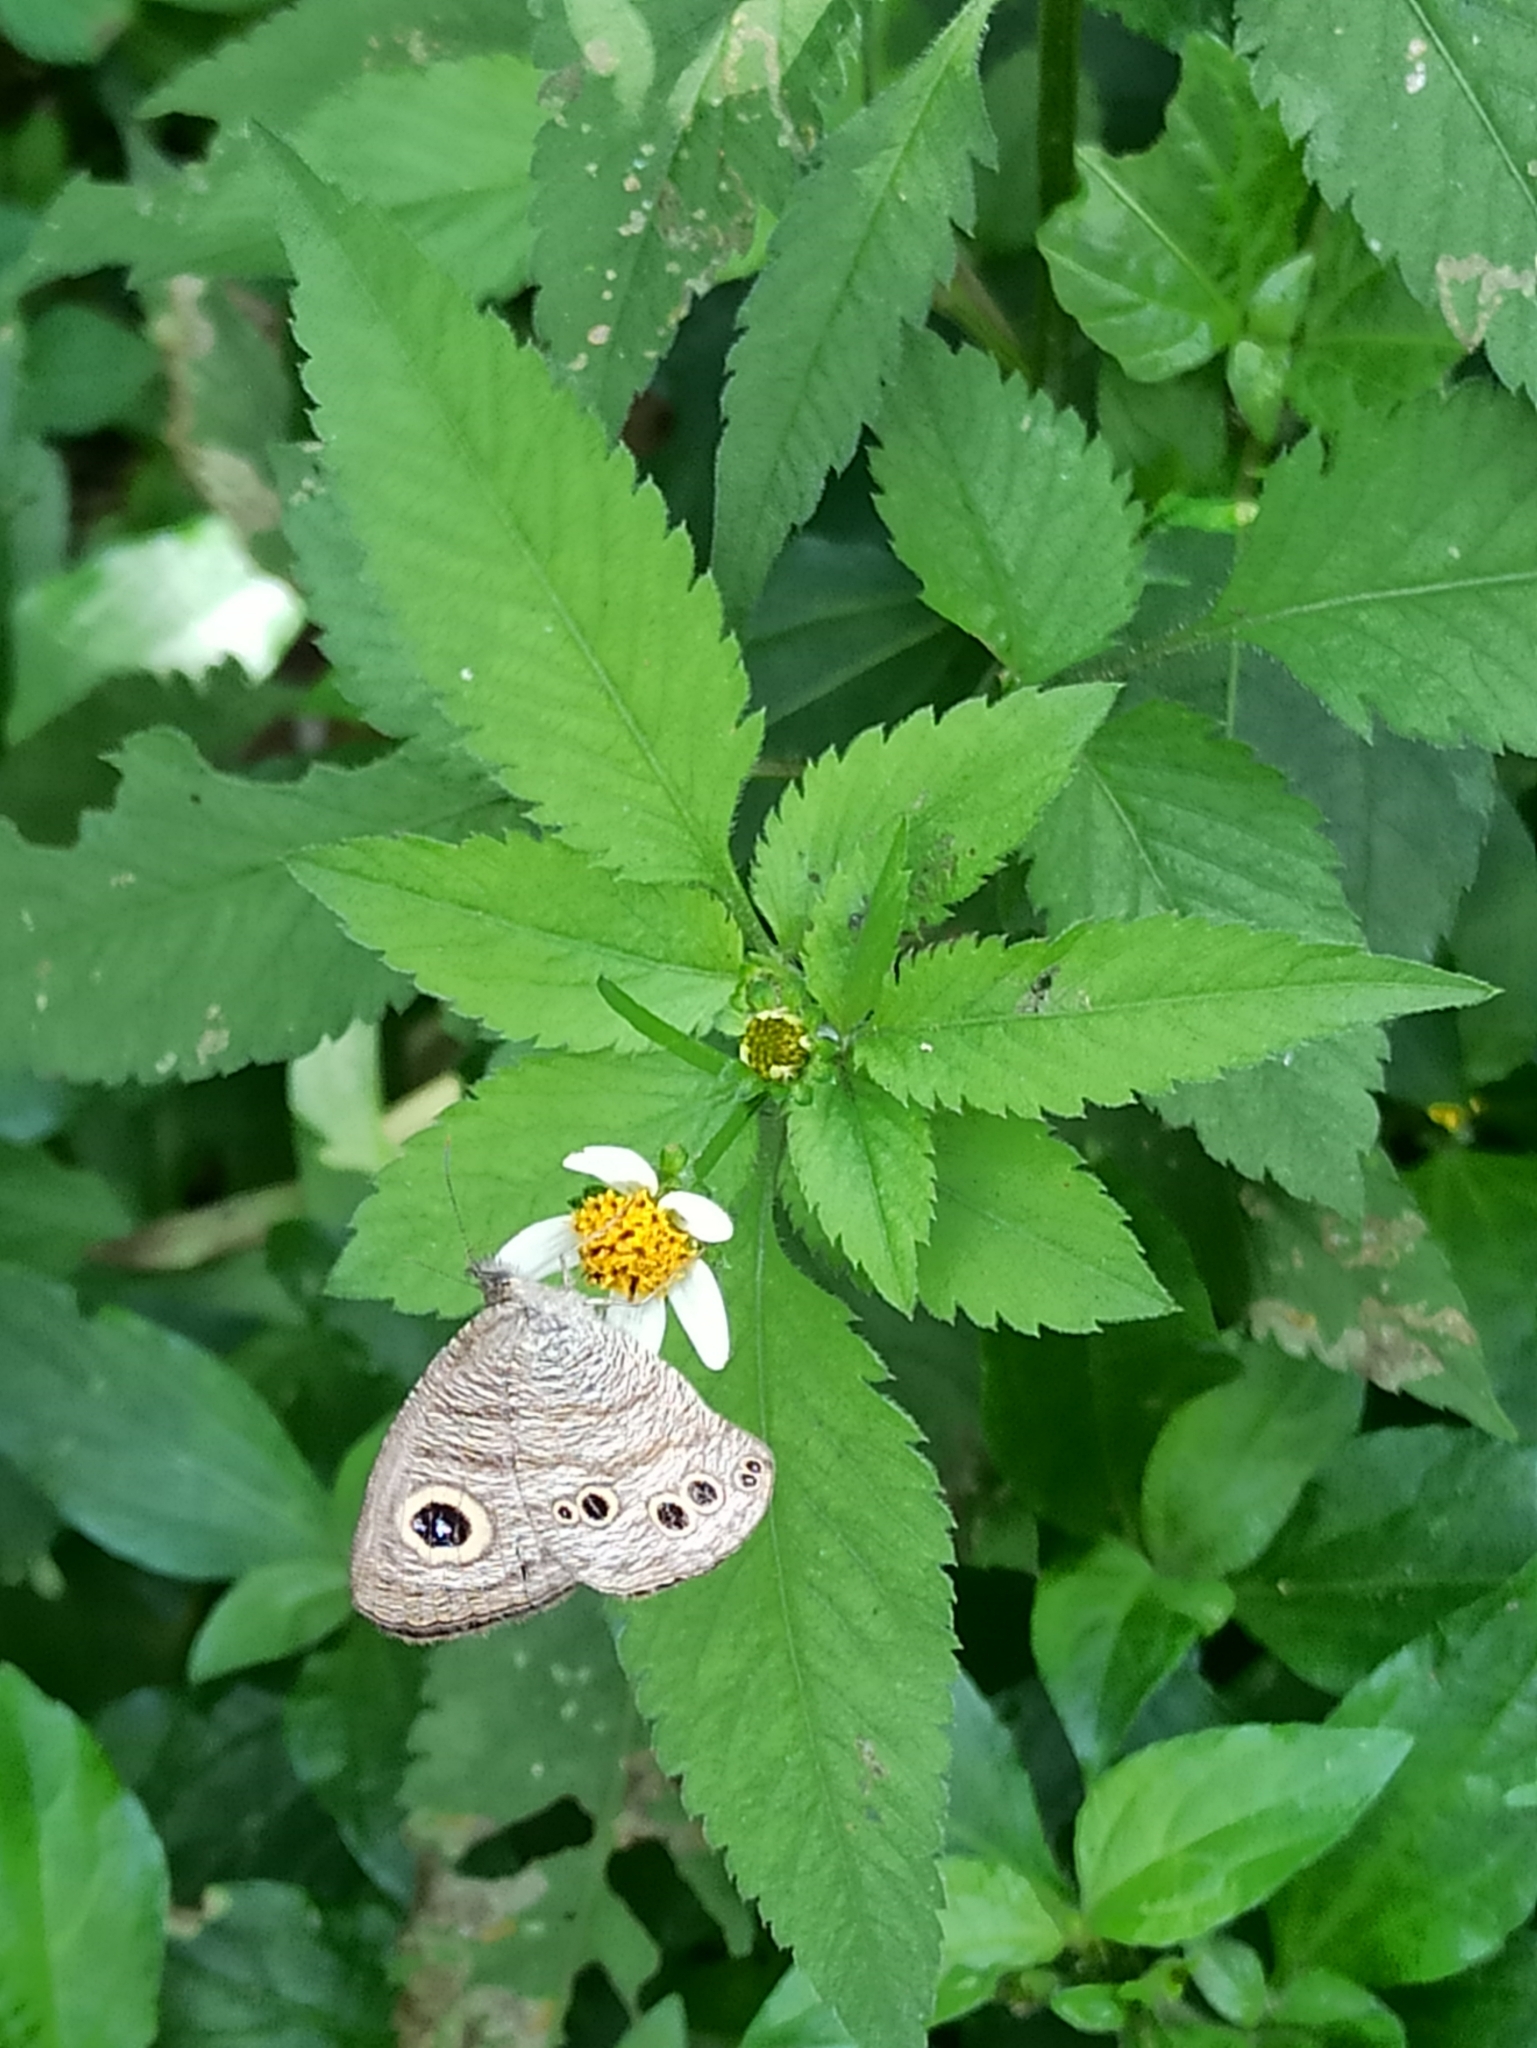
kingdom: Animalia
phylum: Arthropoda
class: Insecta
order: Lepidoptera
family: Nymphalidae
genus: Ypthima
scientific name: Ypthima baldus
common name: Common five-ring
